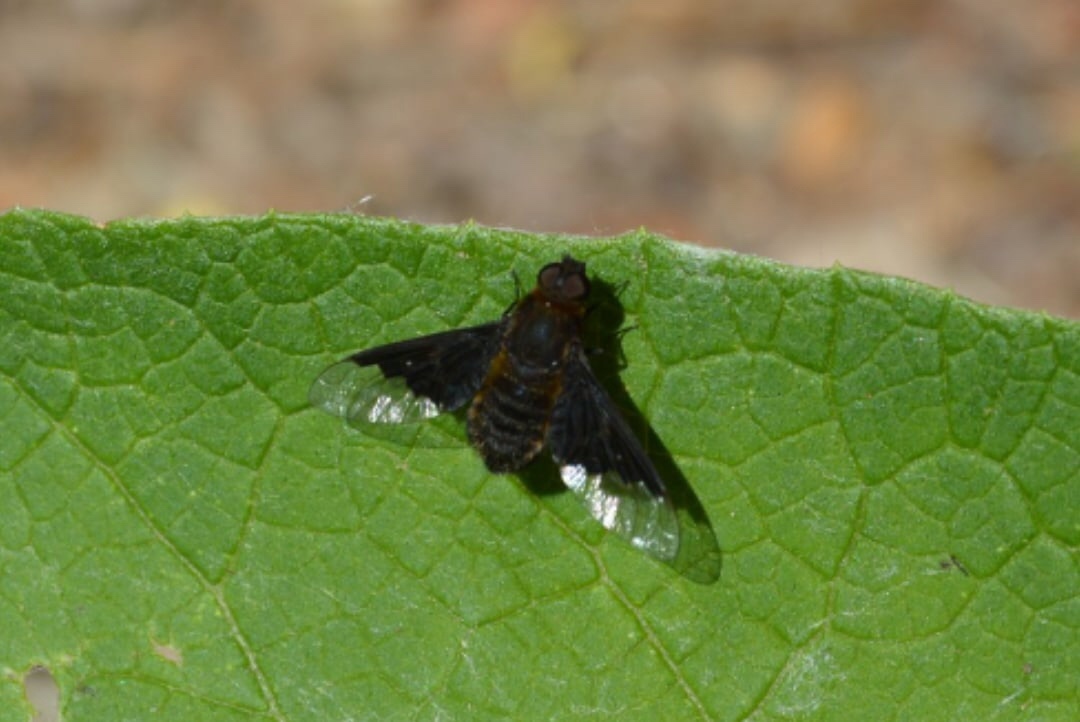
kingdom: Animalia
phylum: Arthropoda
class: Insecta
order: Diptera
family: Bombyliidae
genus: Hemipenthes
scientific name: Hemipenthes morio
